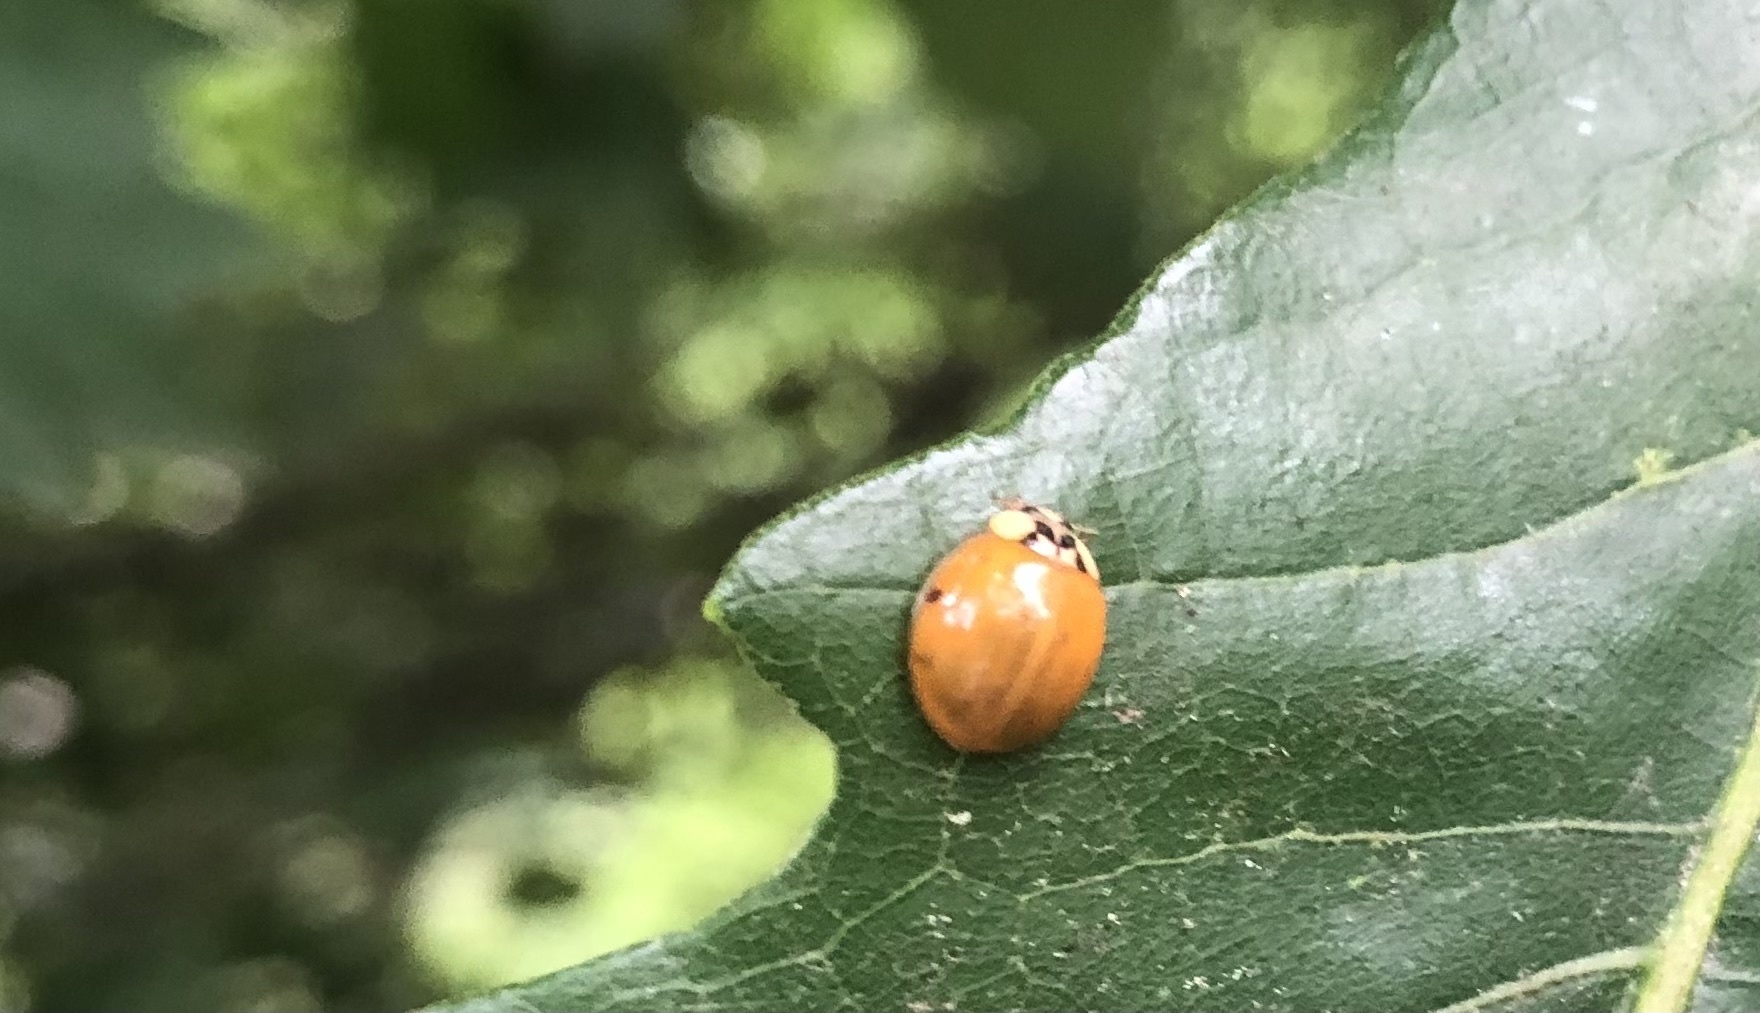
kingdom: Animalia
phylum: Arthropoda
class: Insecta
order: Coleoptera
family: Coccinellidae
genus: Harmonia
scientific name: Harmonia axyridis
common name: Harlequin ladybird
